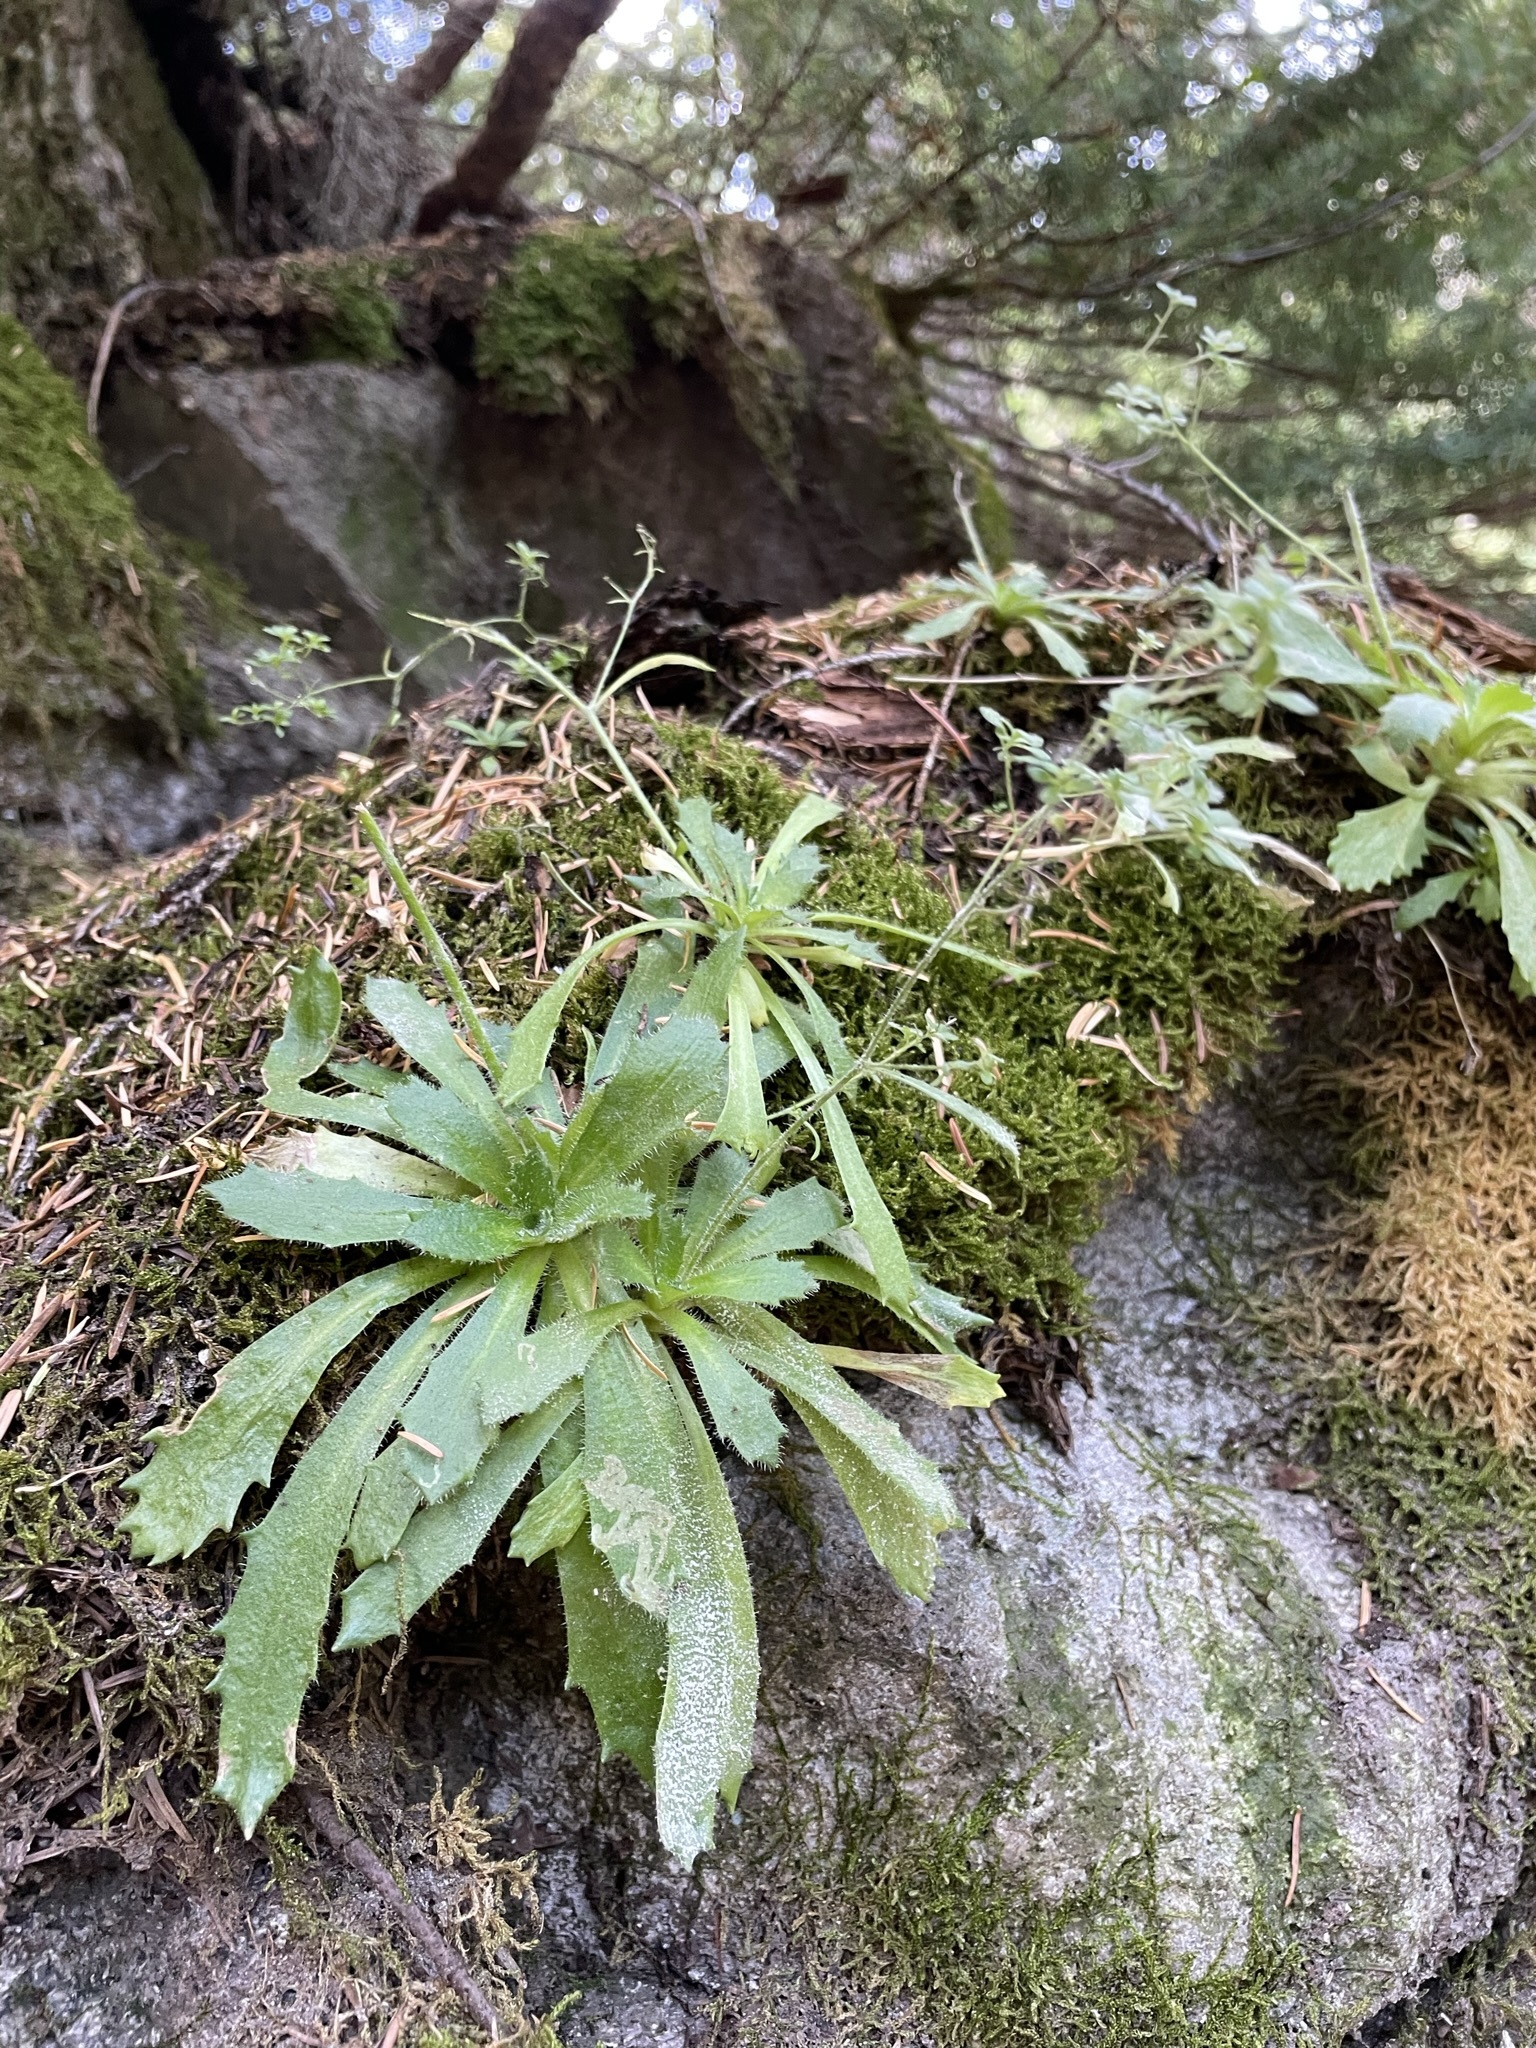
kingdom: Plantae
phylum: Tracheophyta
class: Magnoliopsida
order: Saxifragales
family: Saxifragaceae
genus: Micranthes
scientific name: Micranthes ferruginea
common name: Rusty saxifrage
